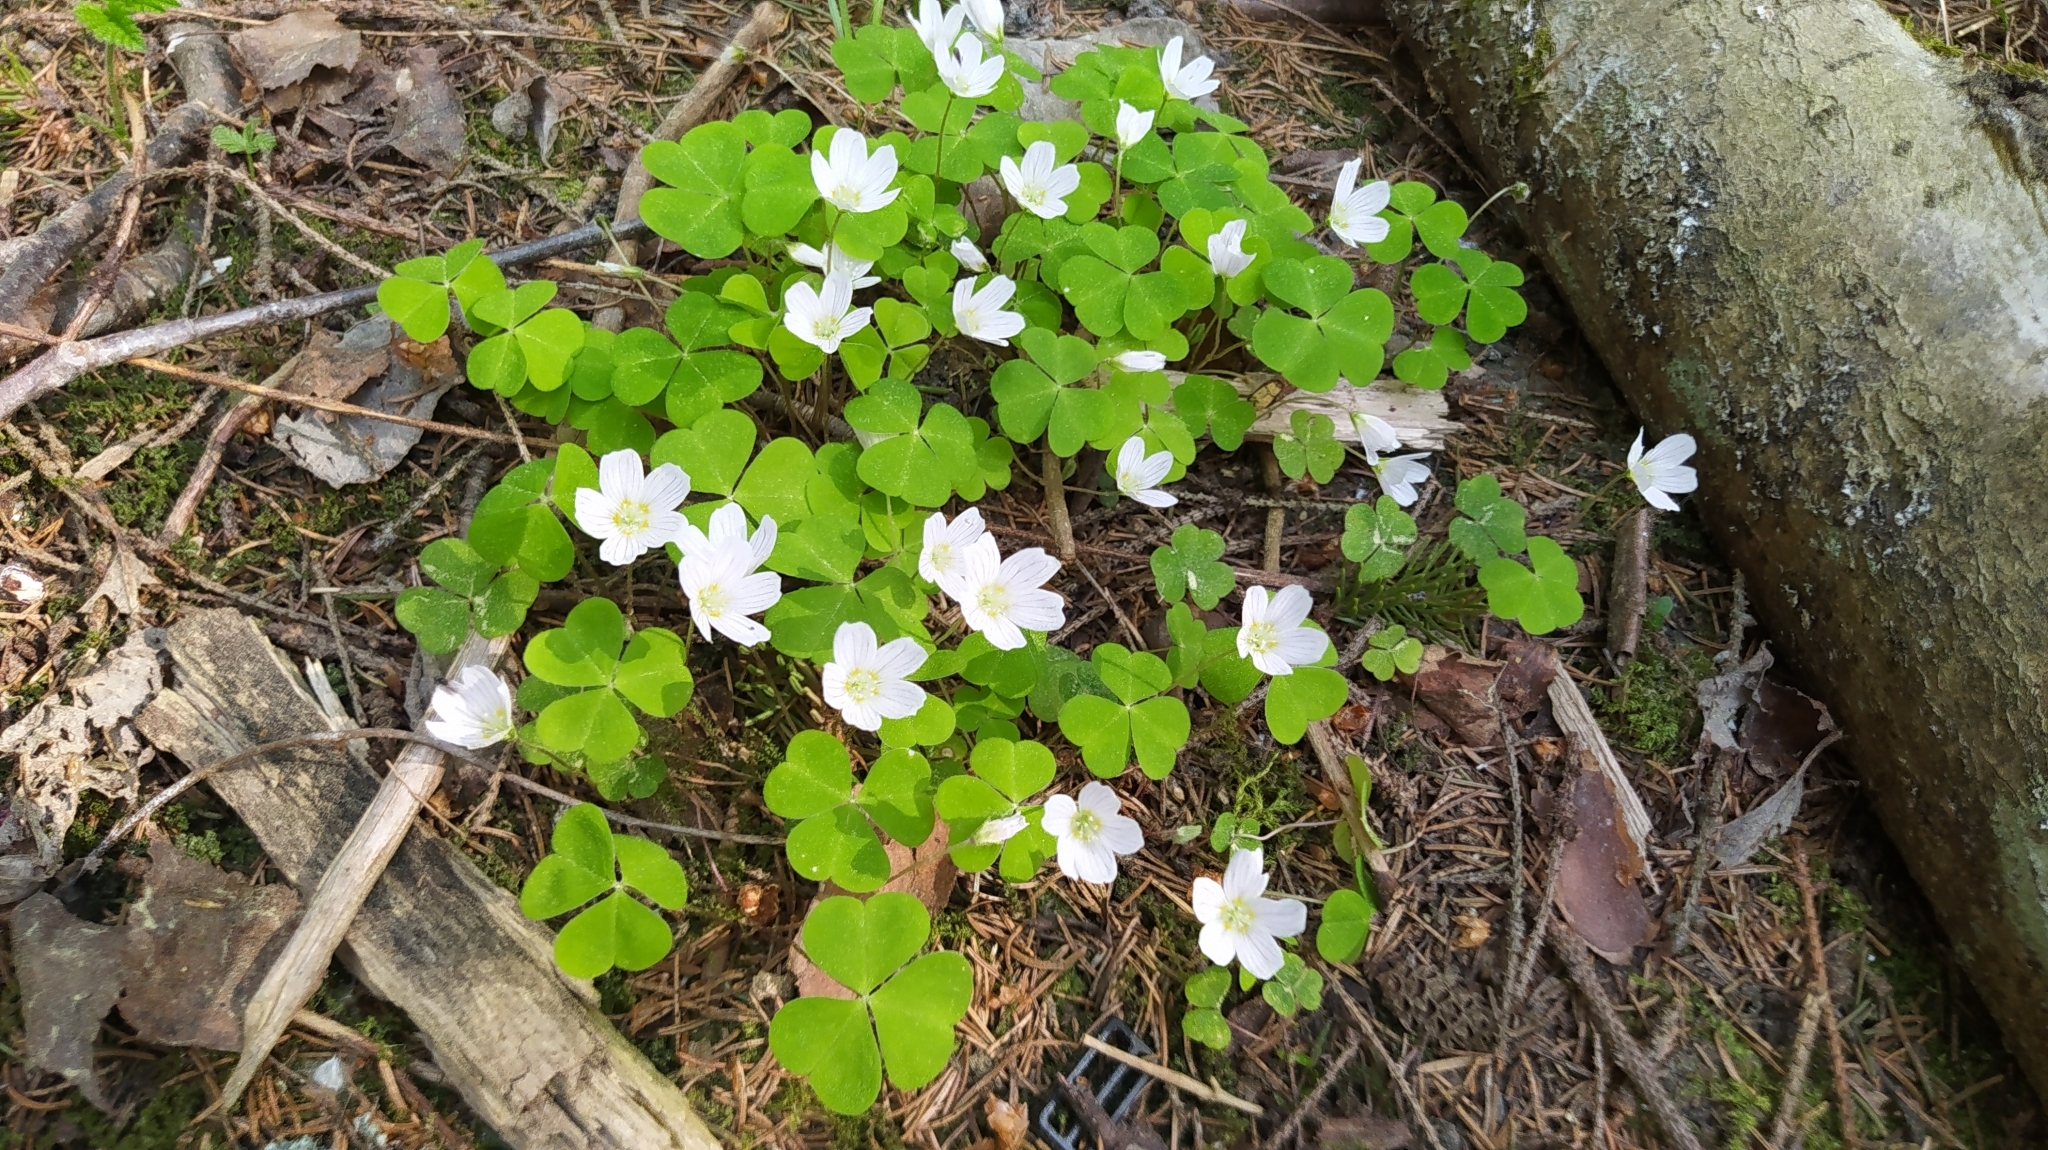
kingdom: Plantae
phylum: Tracheophyta
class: Magnoliopsida
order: Oxalidales
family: Oxalidaceae
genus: Oxalis
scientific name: Oxalis acetosella
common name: Wood-sorrel
